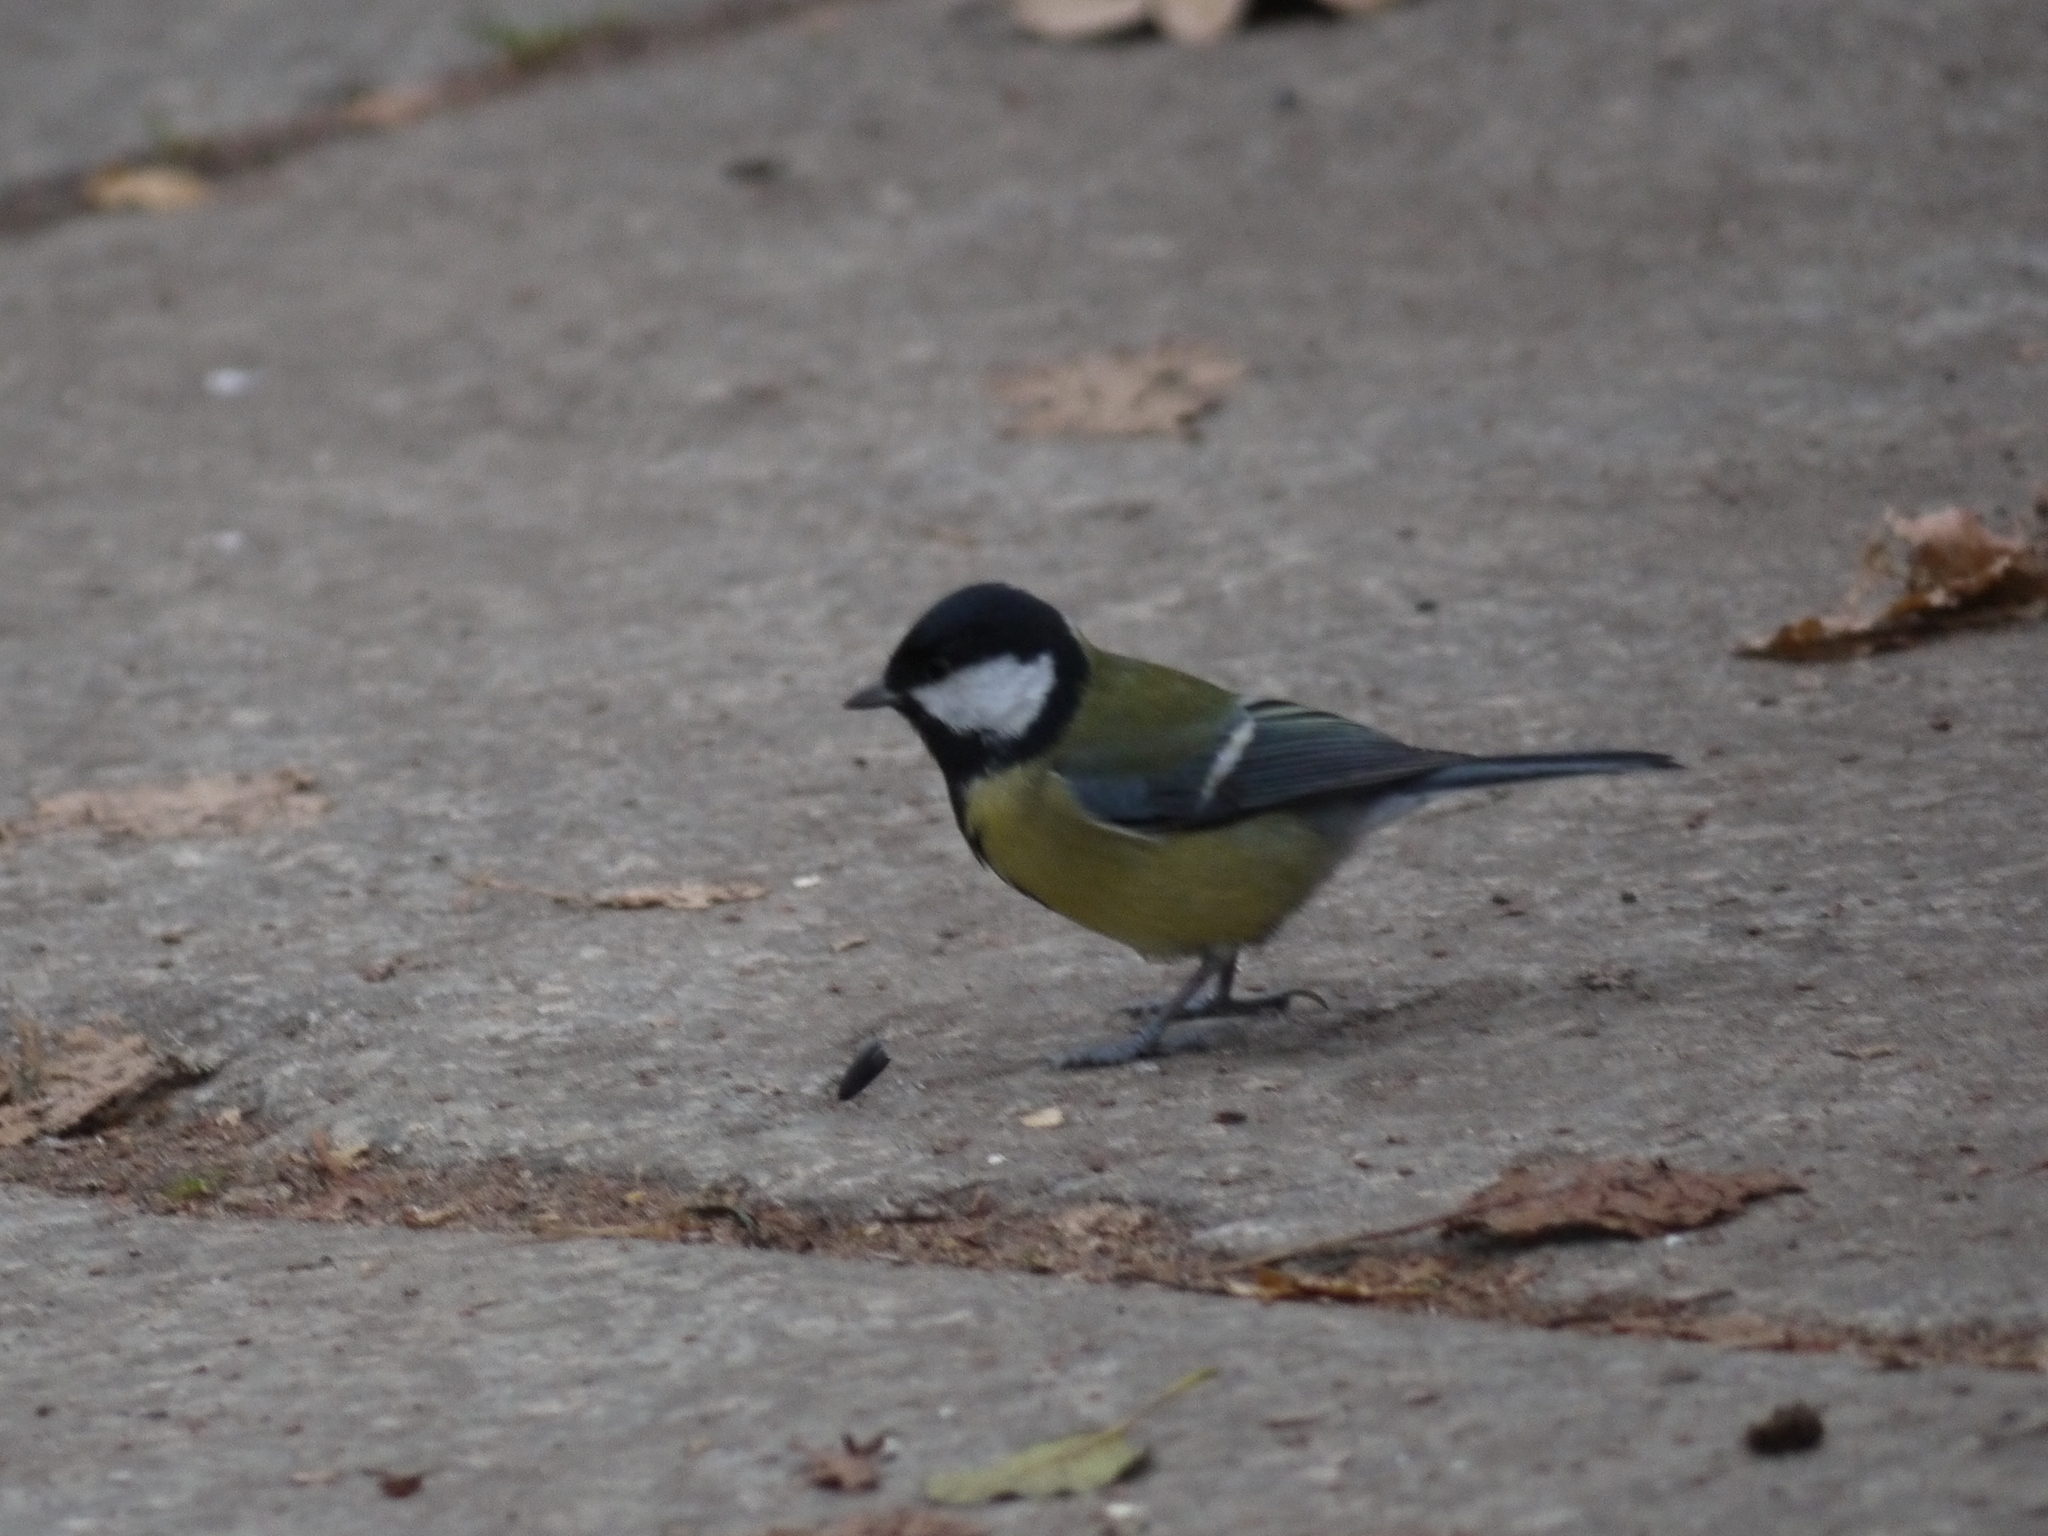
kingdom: Animalia
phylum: Chordata
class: Aves
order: Passeriformes
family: Paridae
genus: Parus
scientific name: Parus major
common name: Great tit
